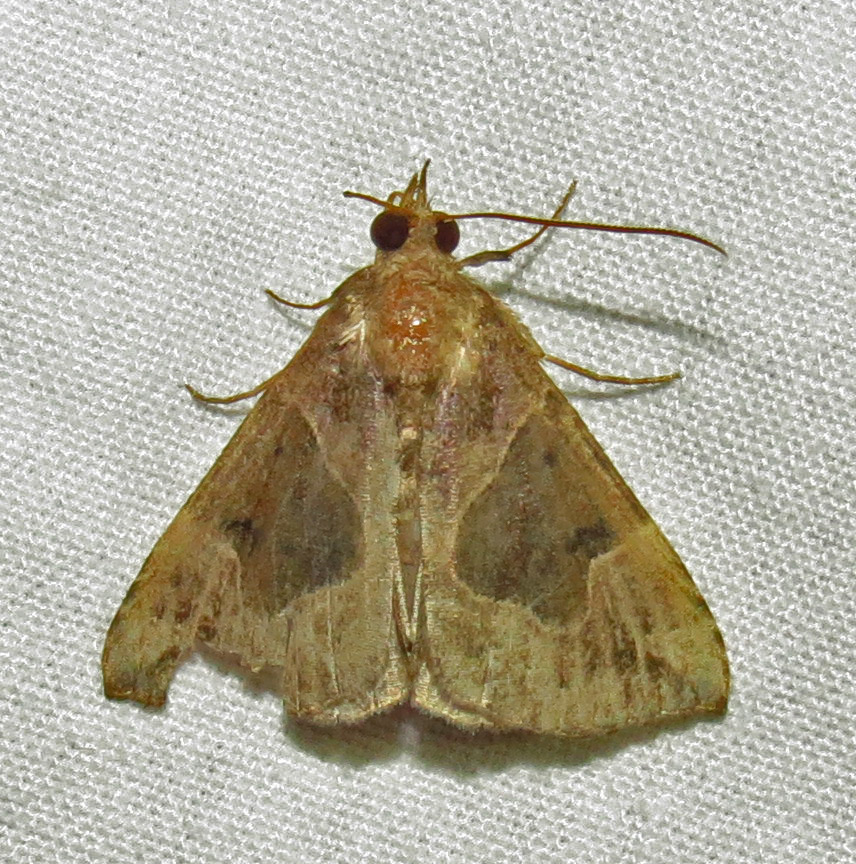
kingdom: Animalia
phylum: Arthropoda
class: Insecta
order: Lepidoptera
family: Erebidae
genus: Hypena
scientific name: Hypena manalis
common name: Flowing-line bomolocha moth
